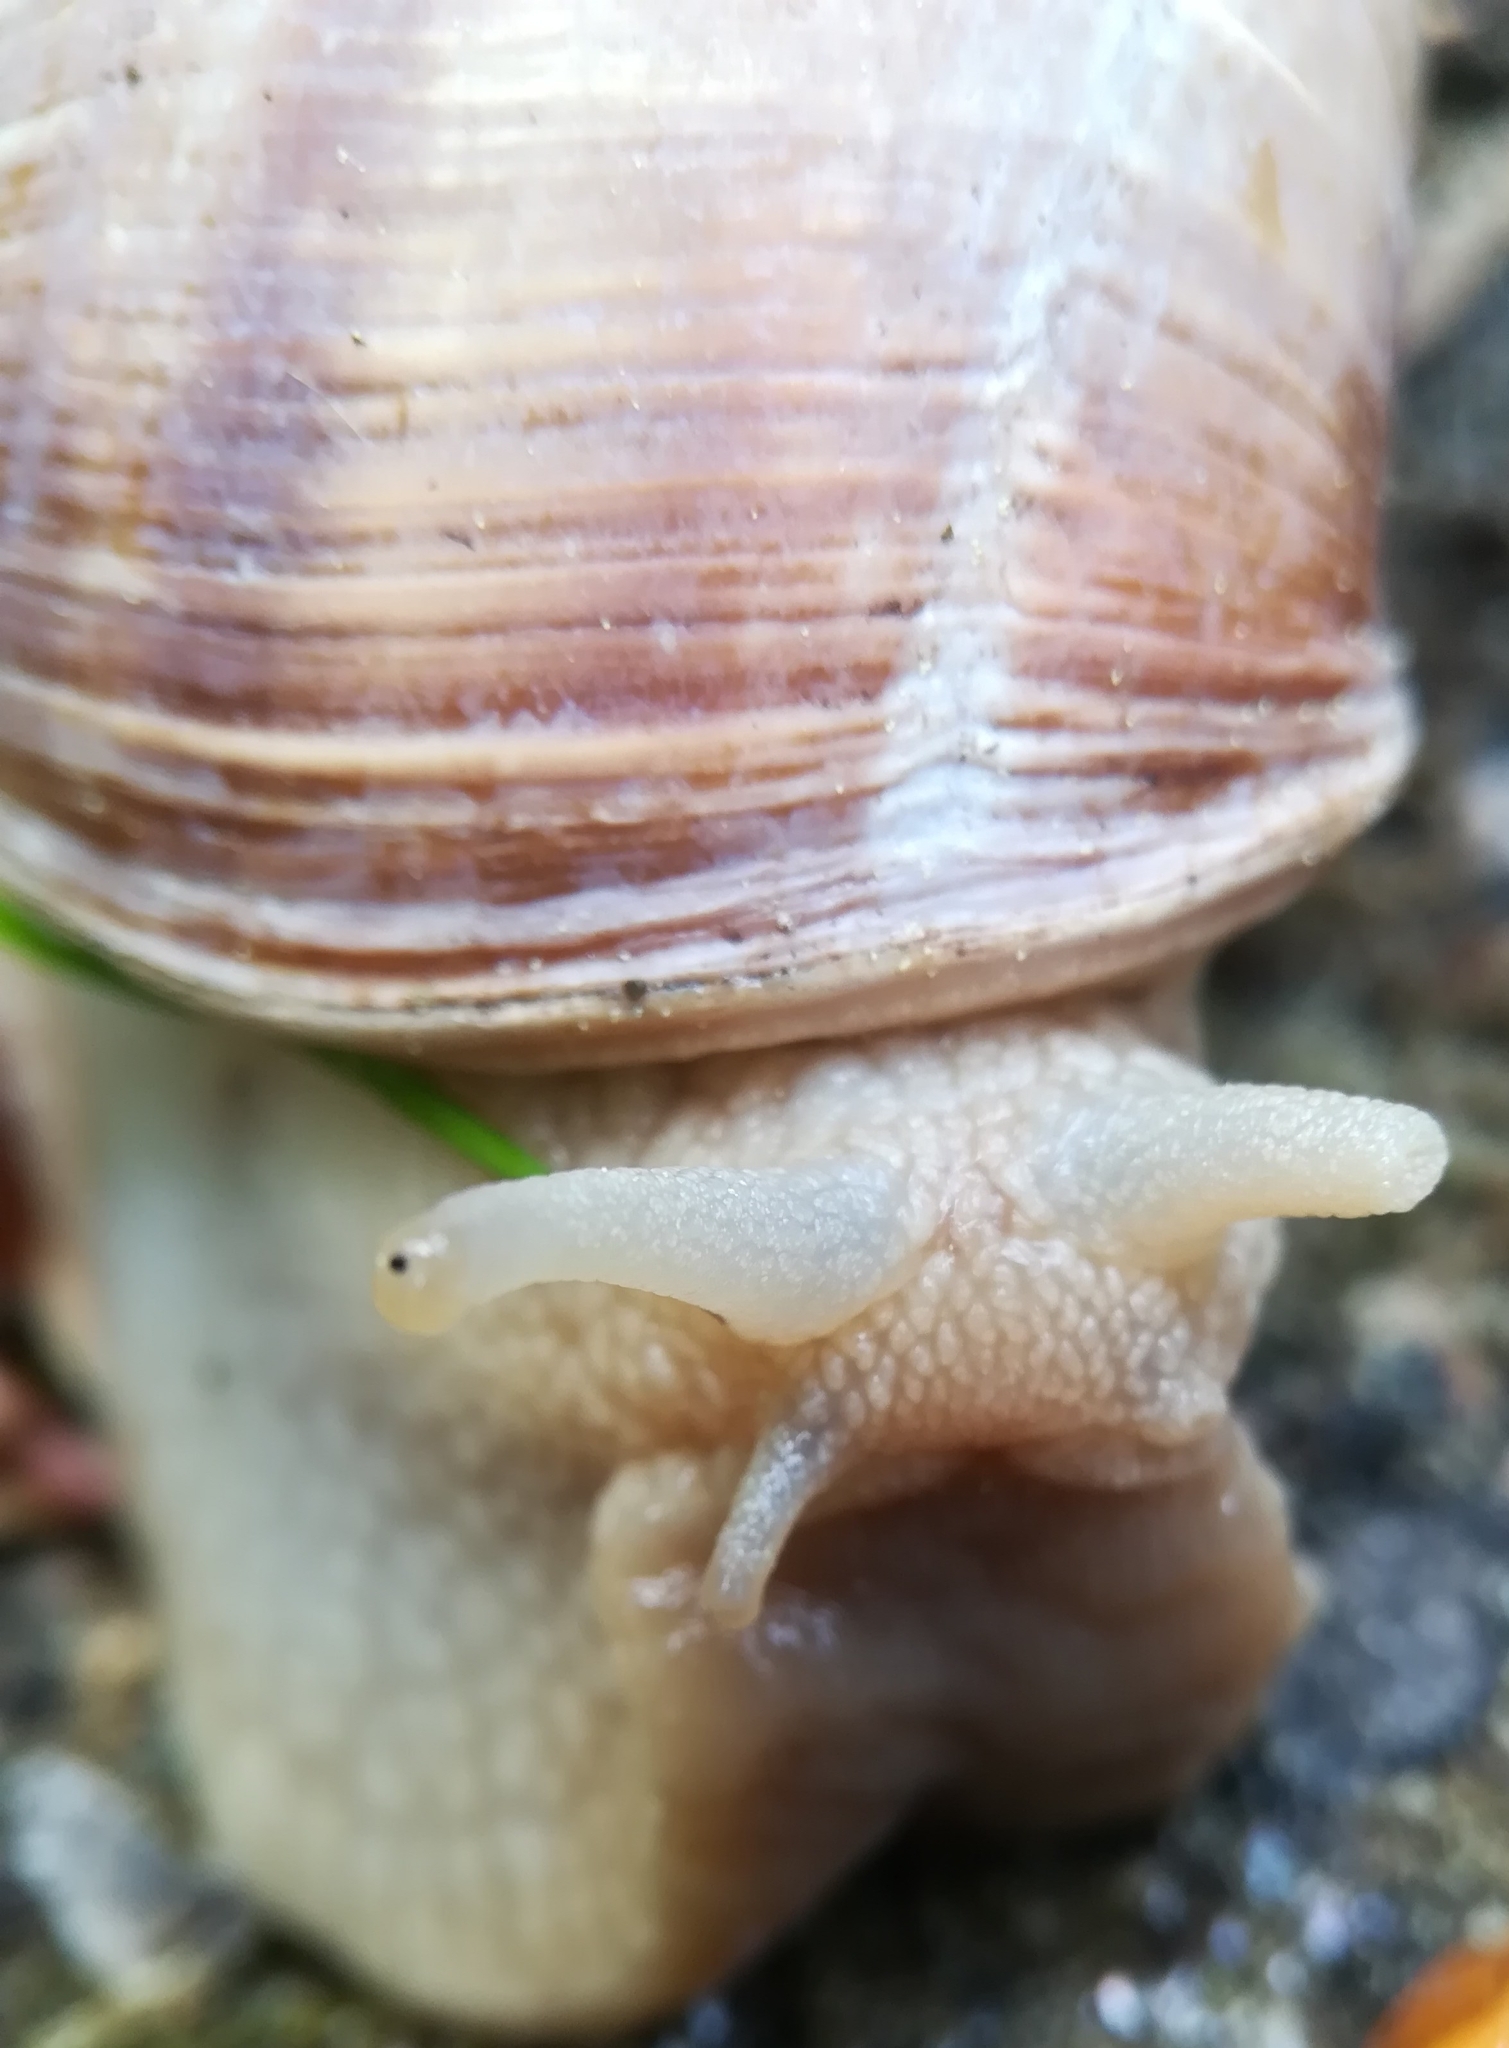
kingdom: Animalia
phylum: Mollusca
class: Gastropoda
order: Stylommatophora
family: Helicidae
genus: Helix
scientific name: Helix pomatia
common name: Roman snail
